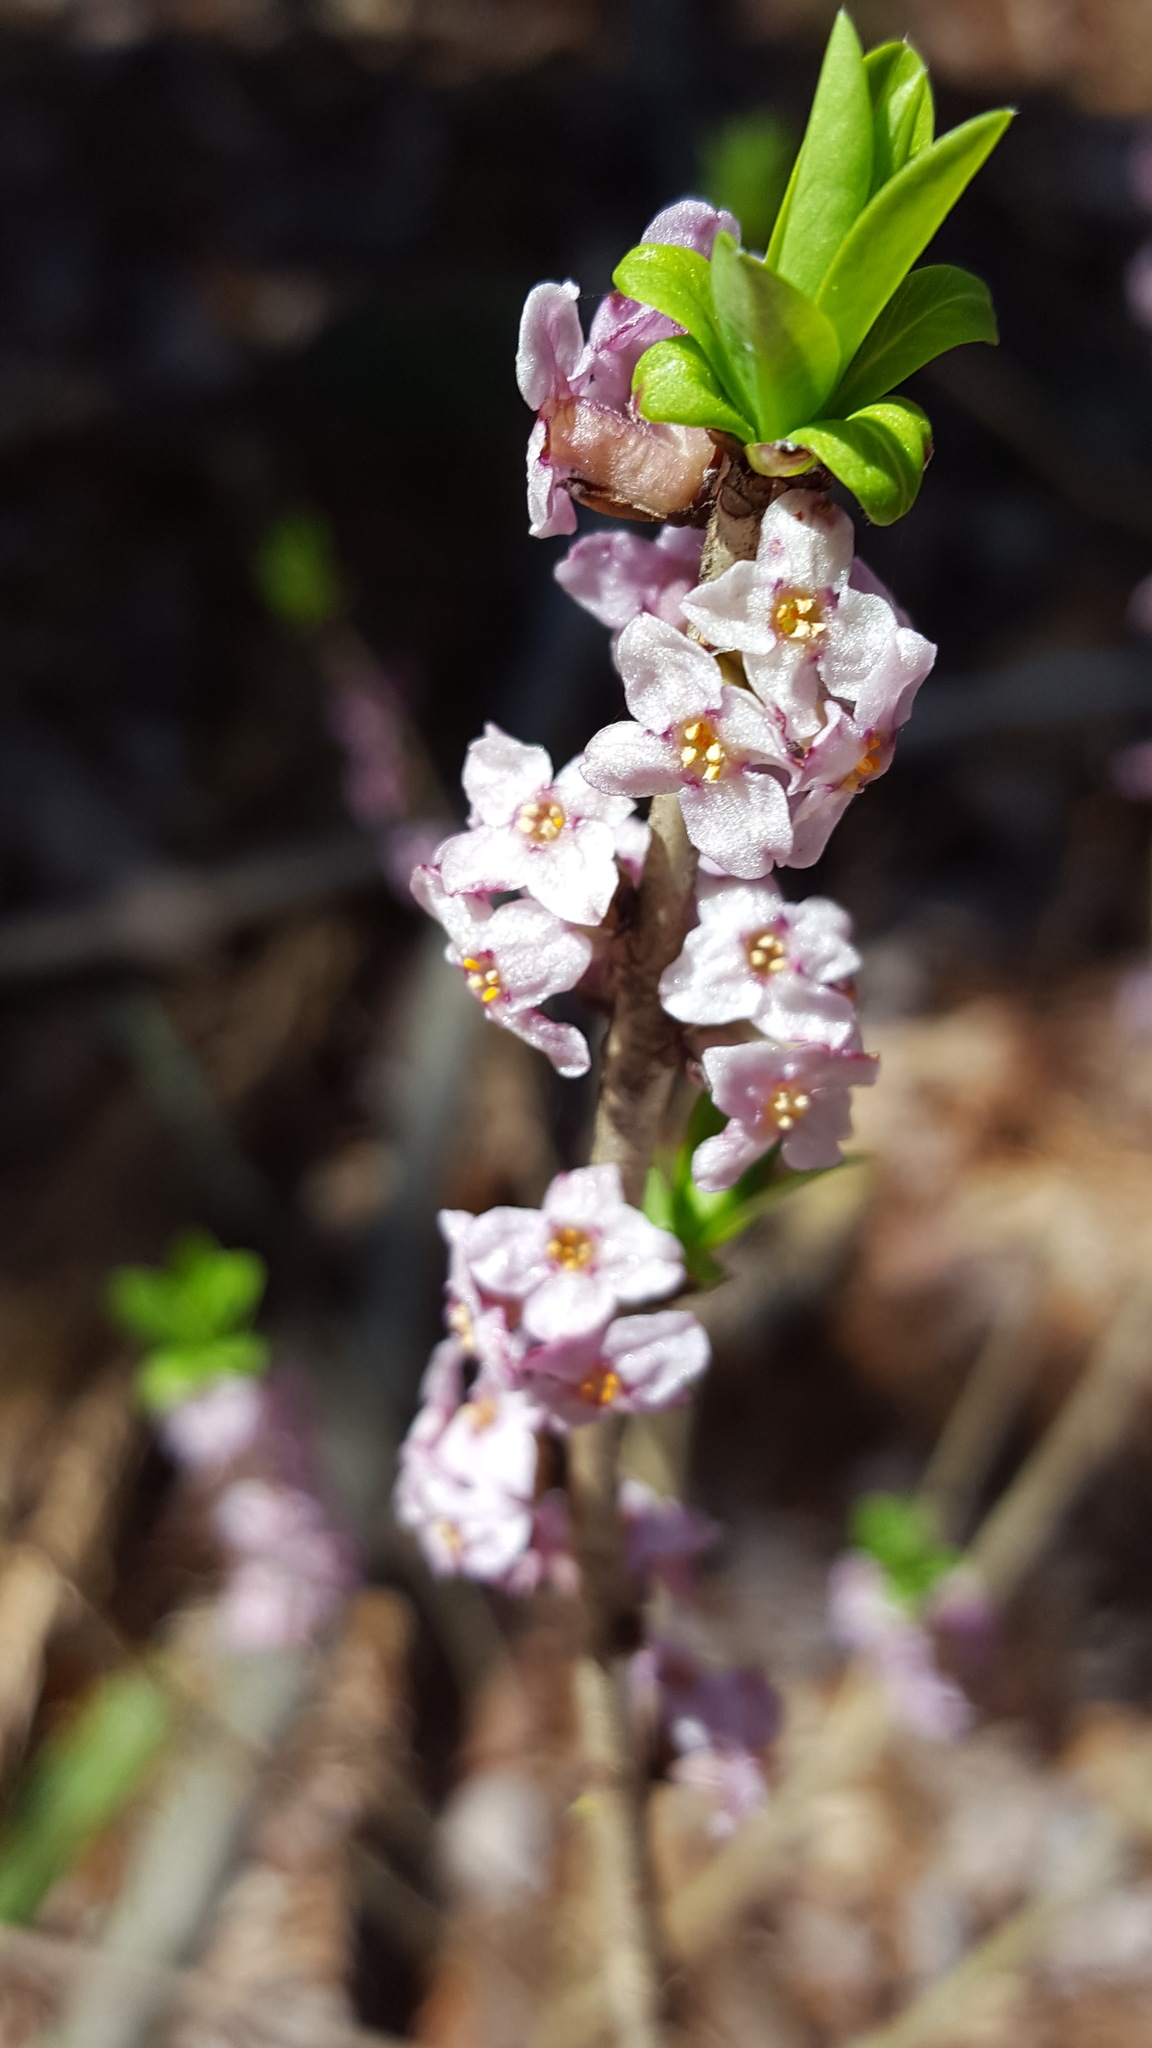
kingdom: Plantae
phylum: Tracheophyta
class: Magnoliopsida
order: Malvales
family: Thymelaeaceae
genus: Daphne
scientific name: Daphne mezereum
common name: Mezereon
